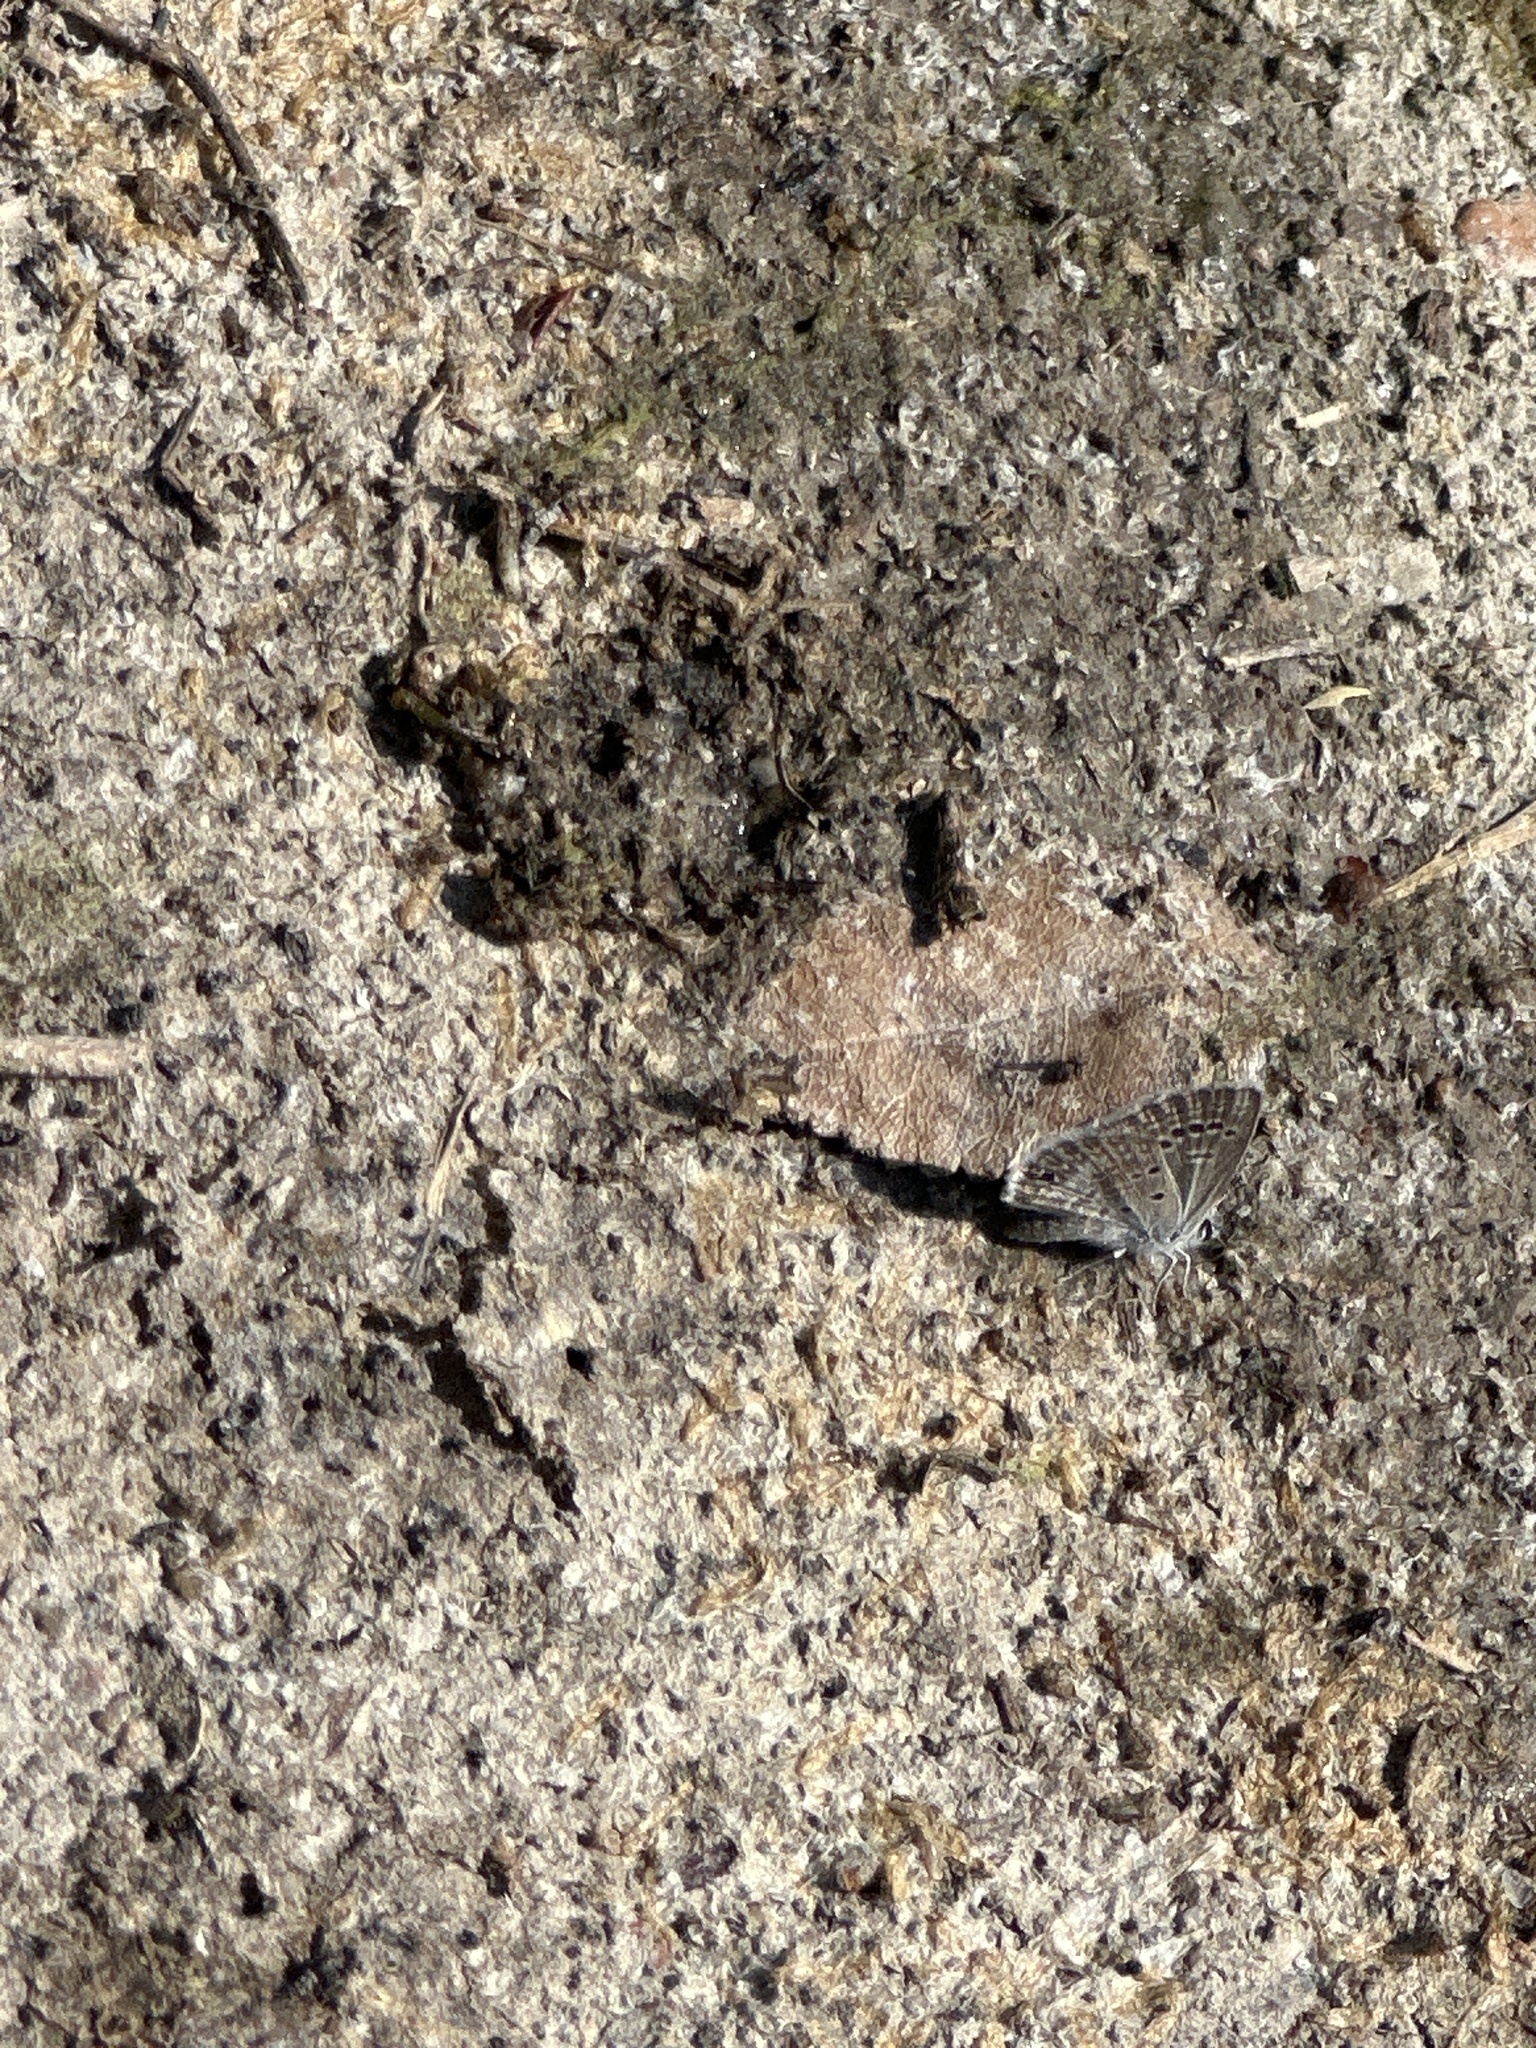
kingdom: Animalia
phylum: Arthropoda
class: Insecta
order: Lepidoptera
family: Lycaenidae
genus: Echinargus
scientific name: Echinargus isola
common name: Reakirt's blue
